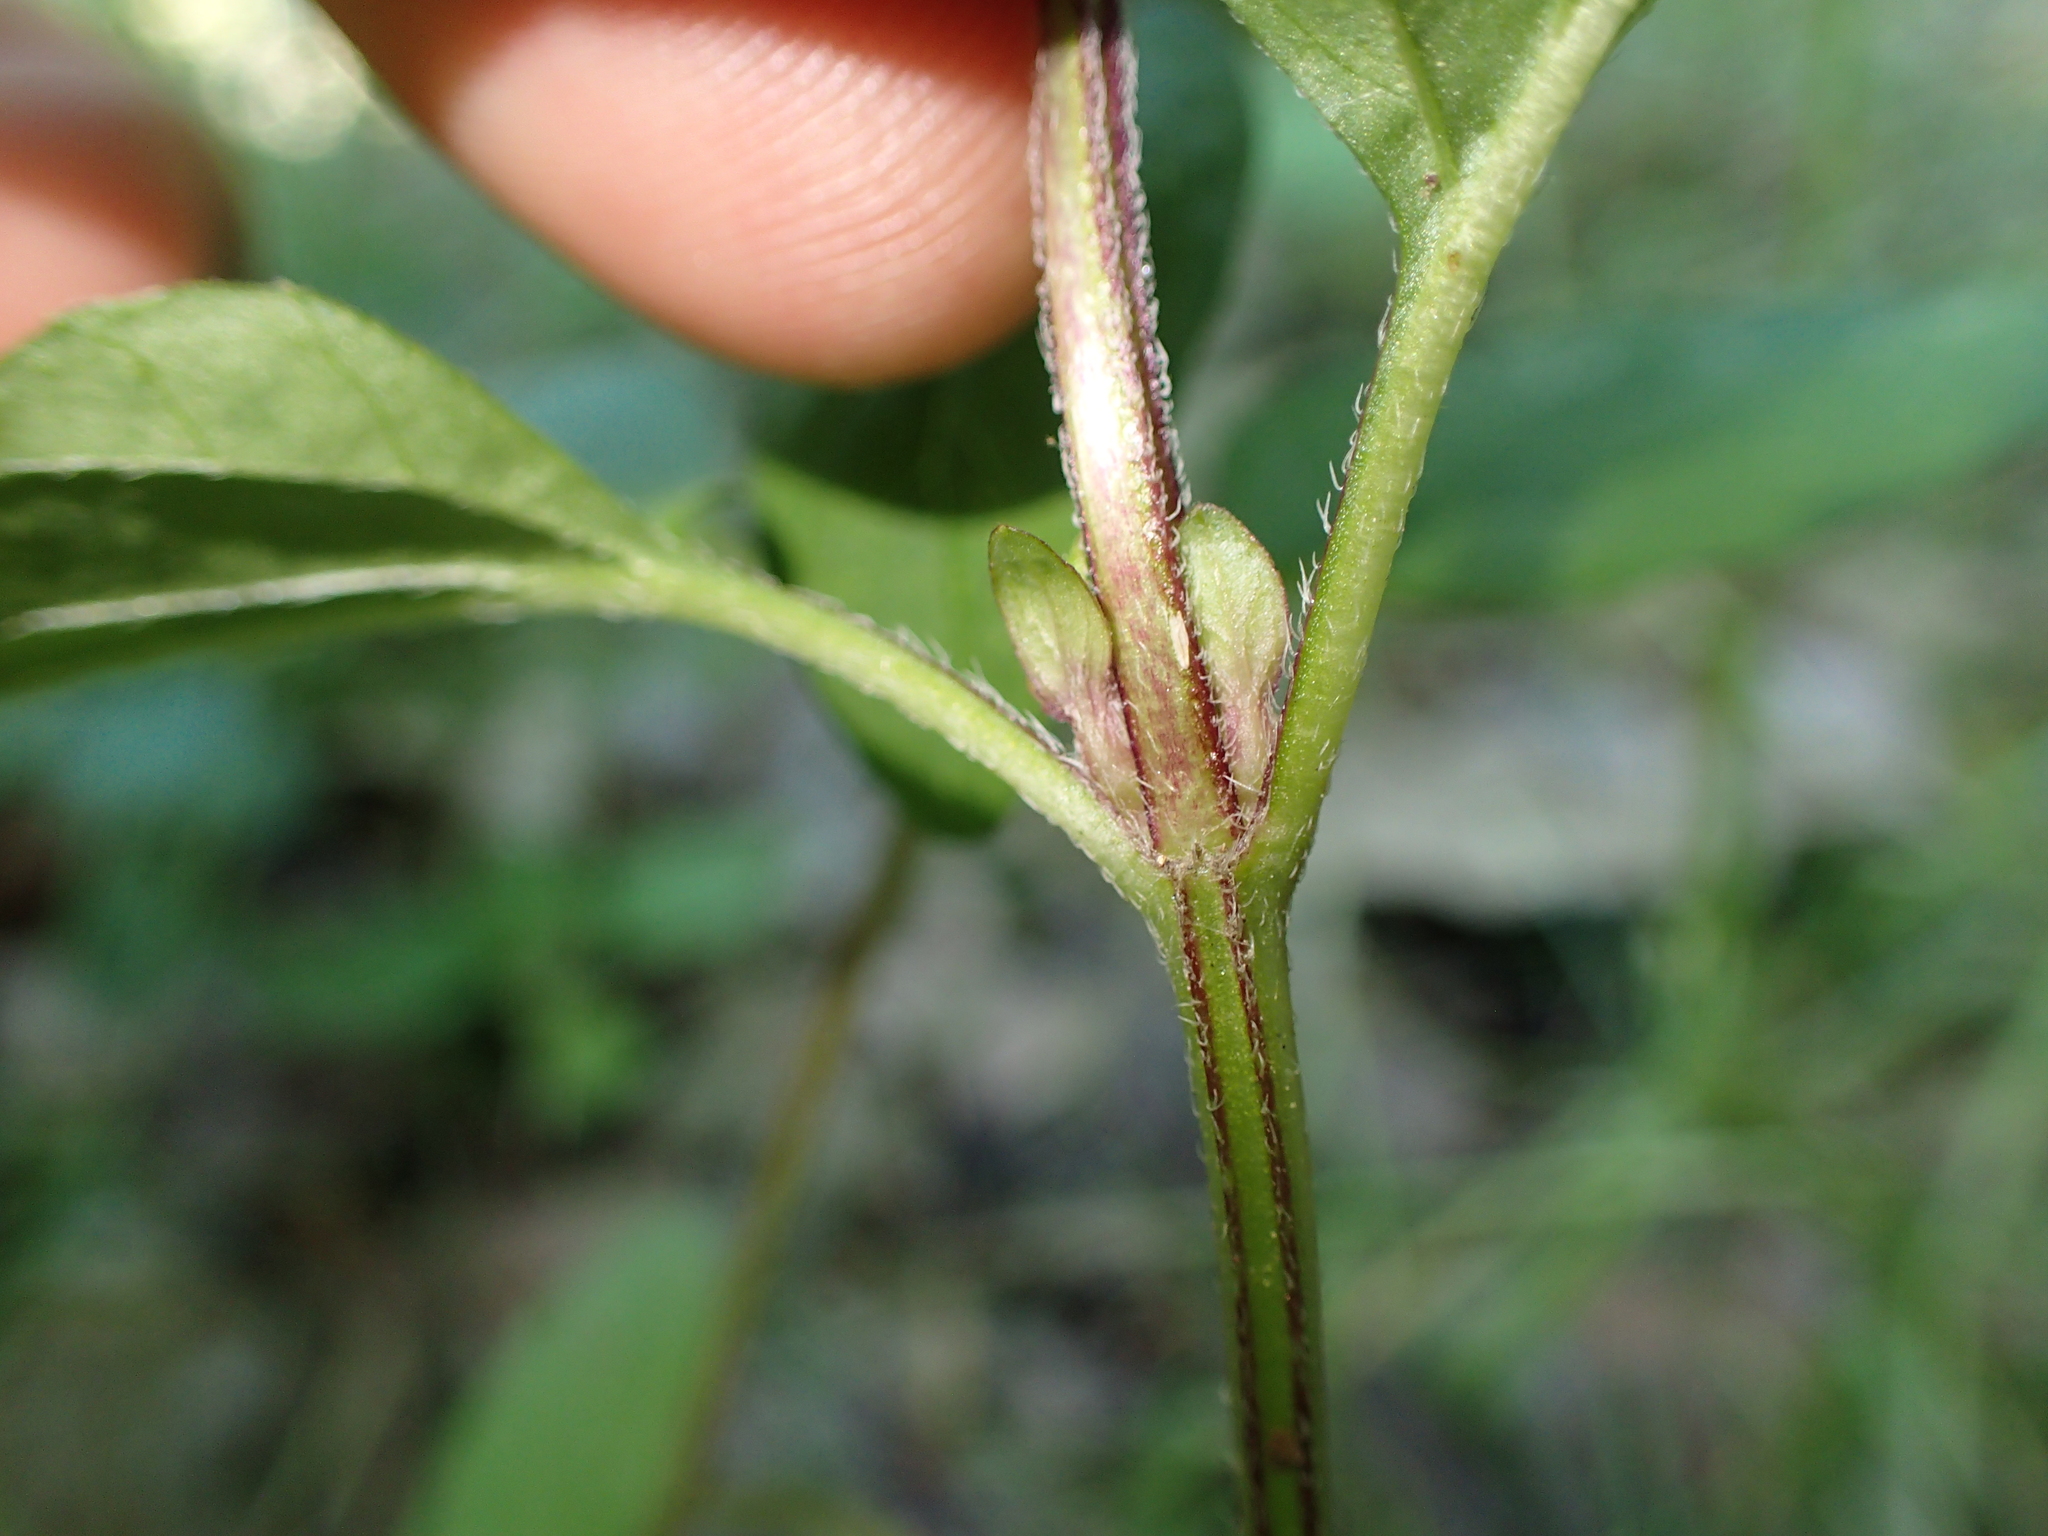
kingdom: Plantae
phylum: Tracheophyta
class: Magnoliopsida
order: Lamiales
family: Lamiaceae
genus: Prunella
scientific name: Prunella vulgaris
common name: Heal-all
